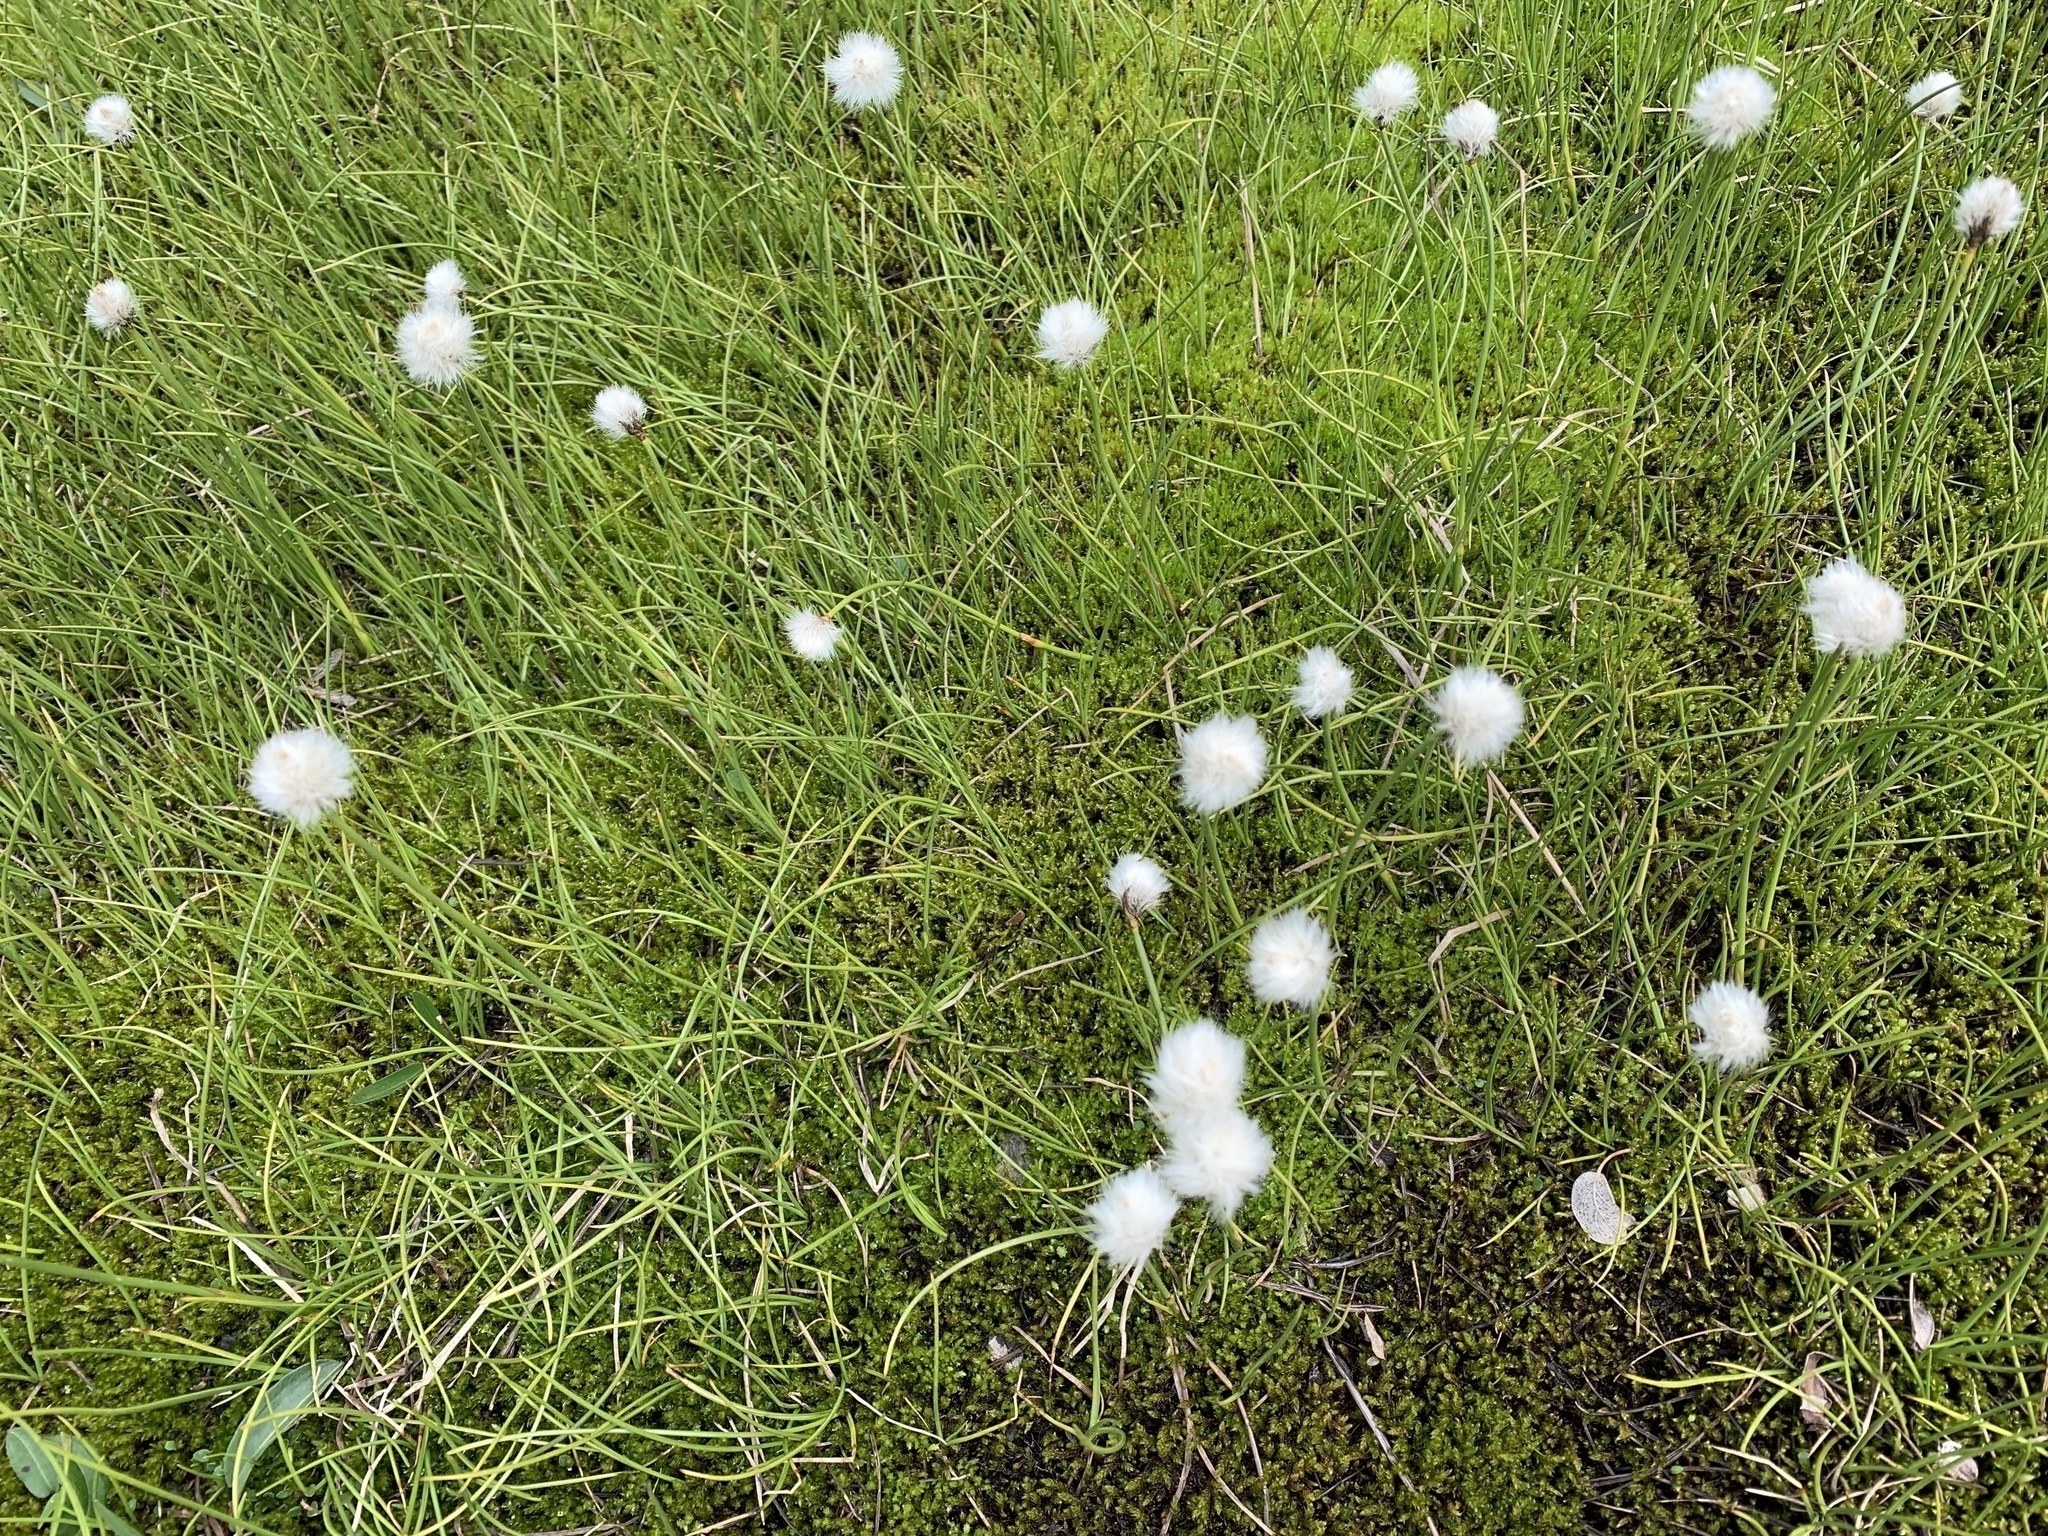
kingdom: Plantae
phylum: Tracheophyta
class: Liliopsida
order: Poales
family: Cyperaceae
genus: Eriophorum
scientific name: Eriophorum scheuchzeri
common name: Scheuchzer's cottongrass
